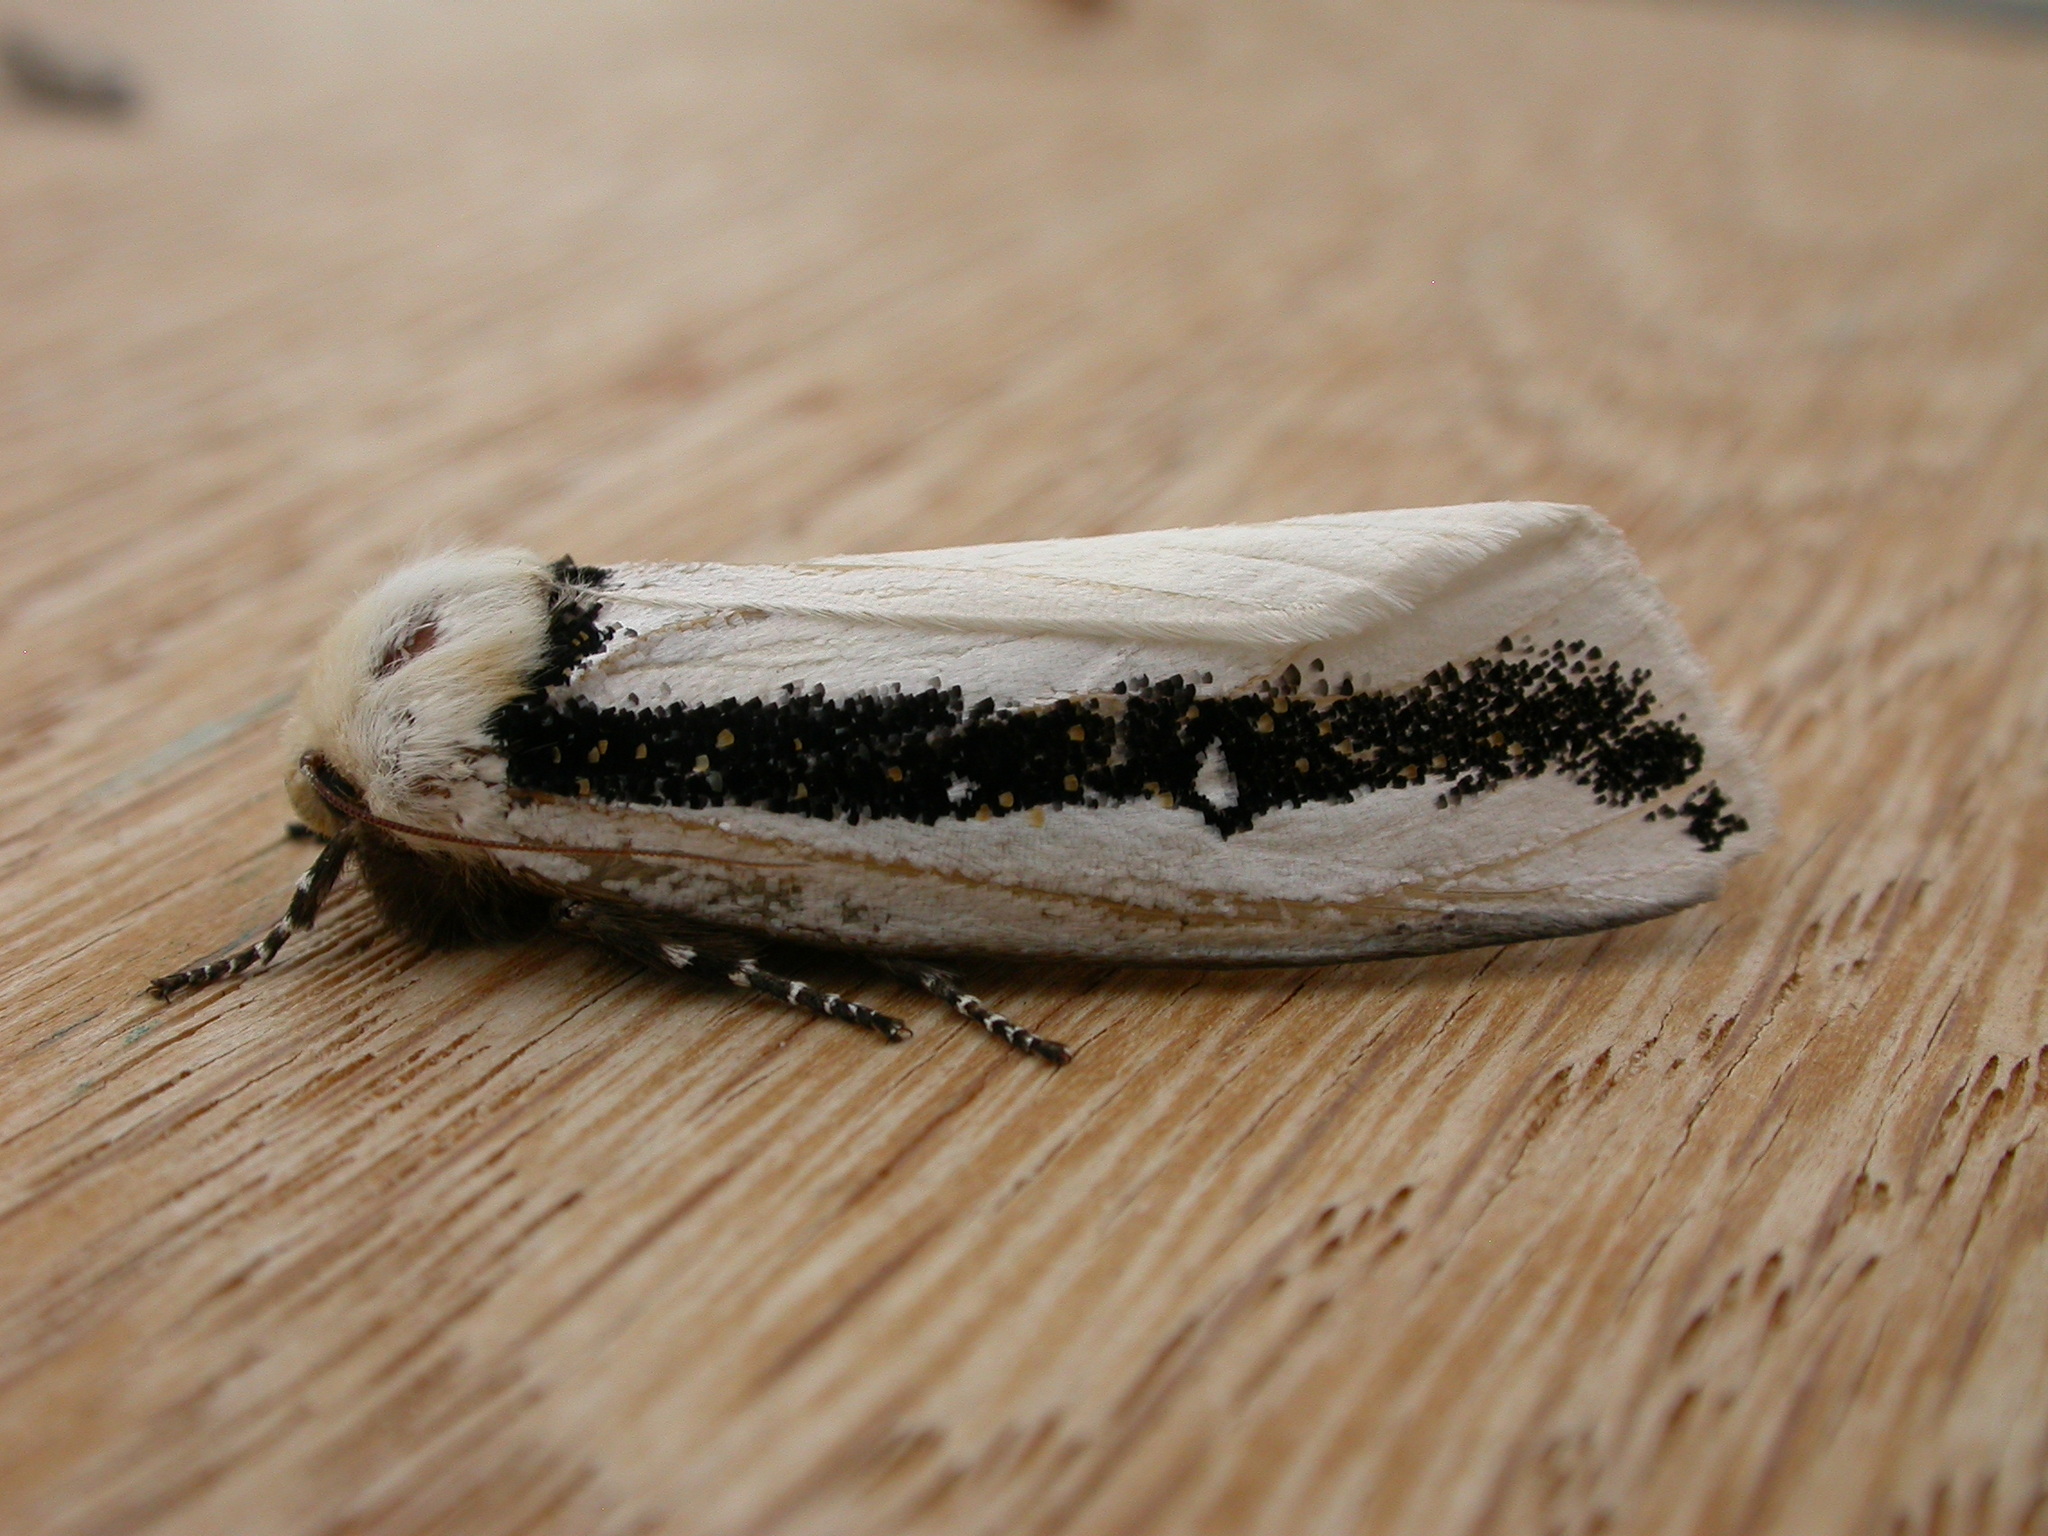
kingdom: Animalia
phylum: Arthropoda
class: Insecta
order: Lepidoptera
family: Oenosandridae
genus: Oenosandra
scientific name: Oenosandra boisduvalii
